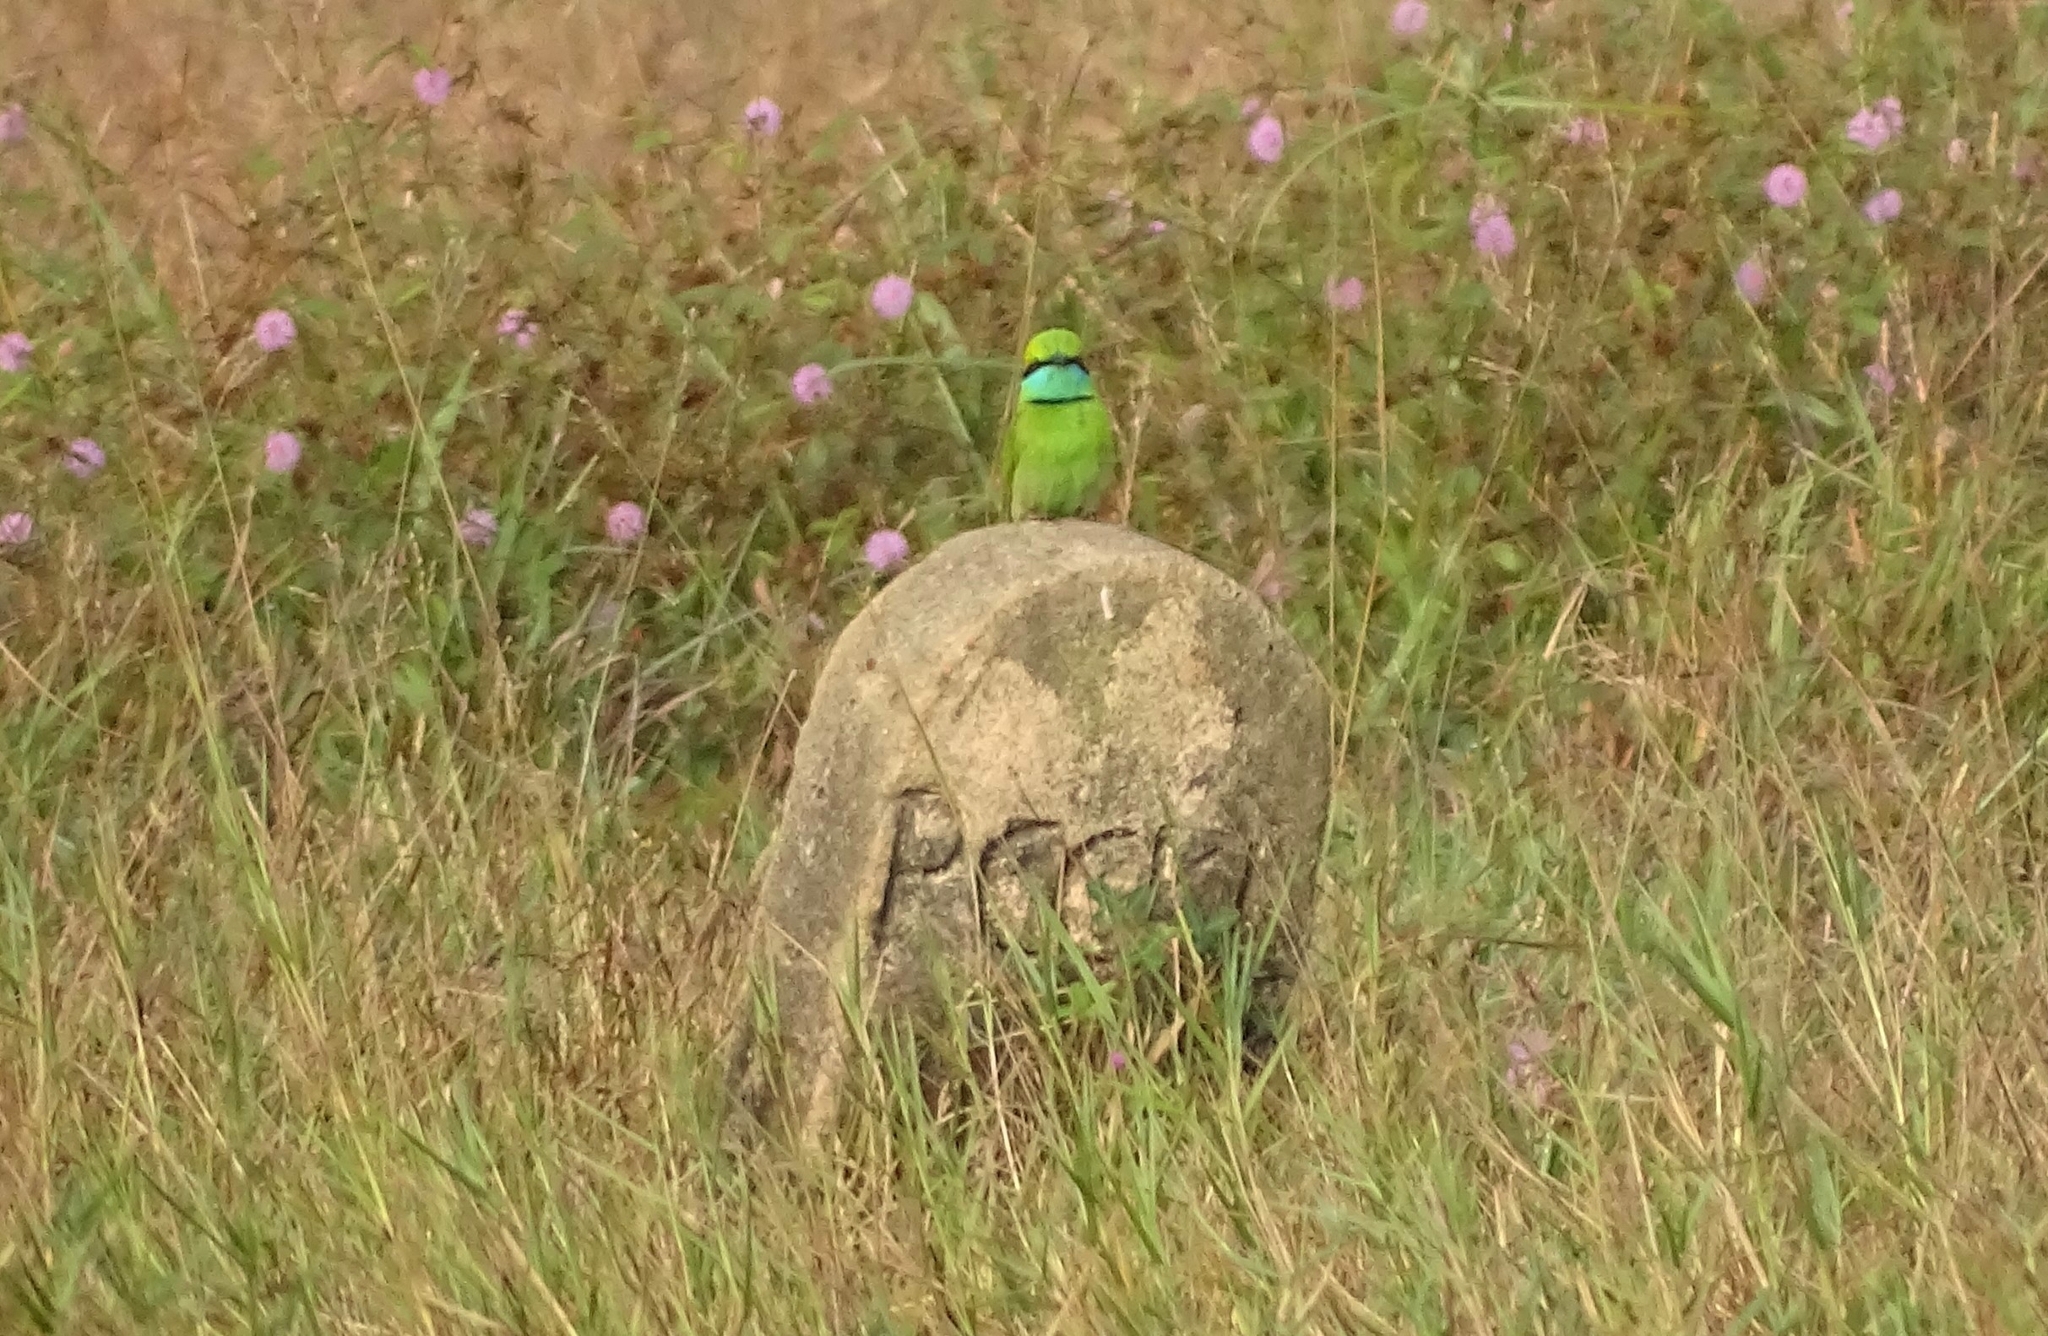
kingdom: Animalia
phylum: Chordata
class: Aves
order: Coraciiformes
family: Meropidae
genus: Merops
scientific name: Merops orientalis
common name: Green bee-eater
